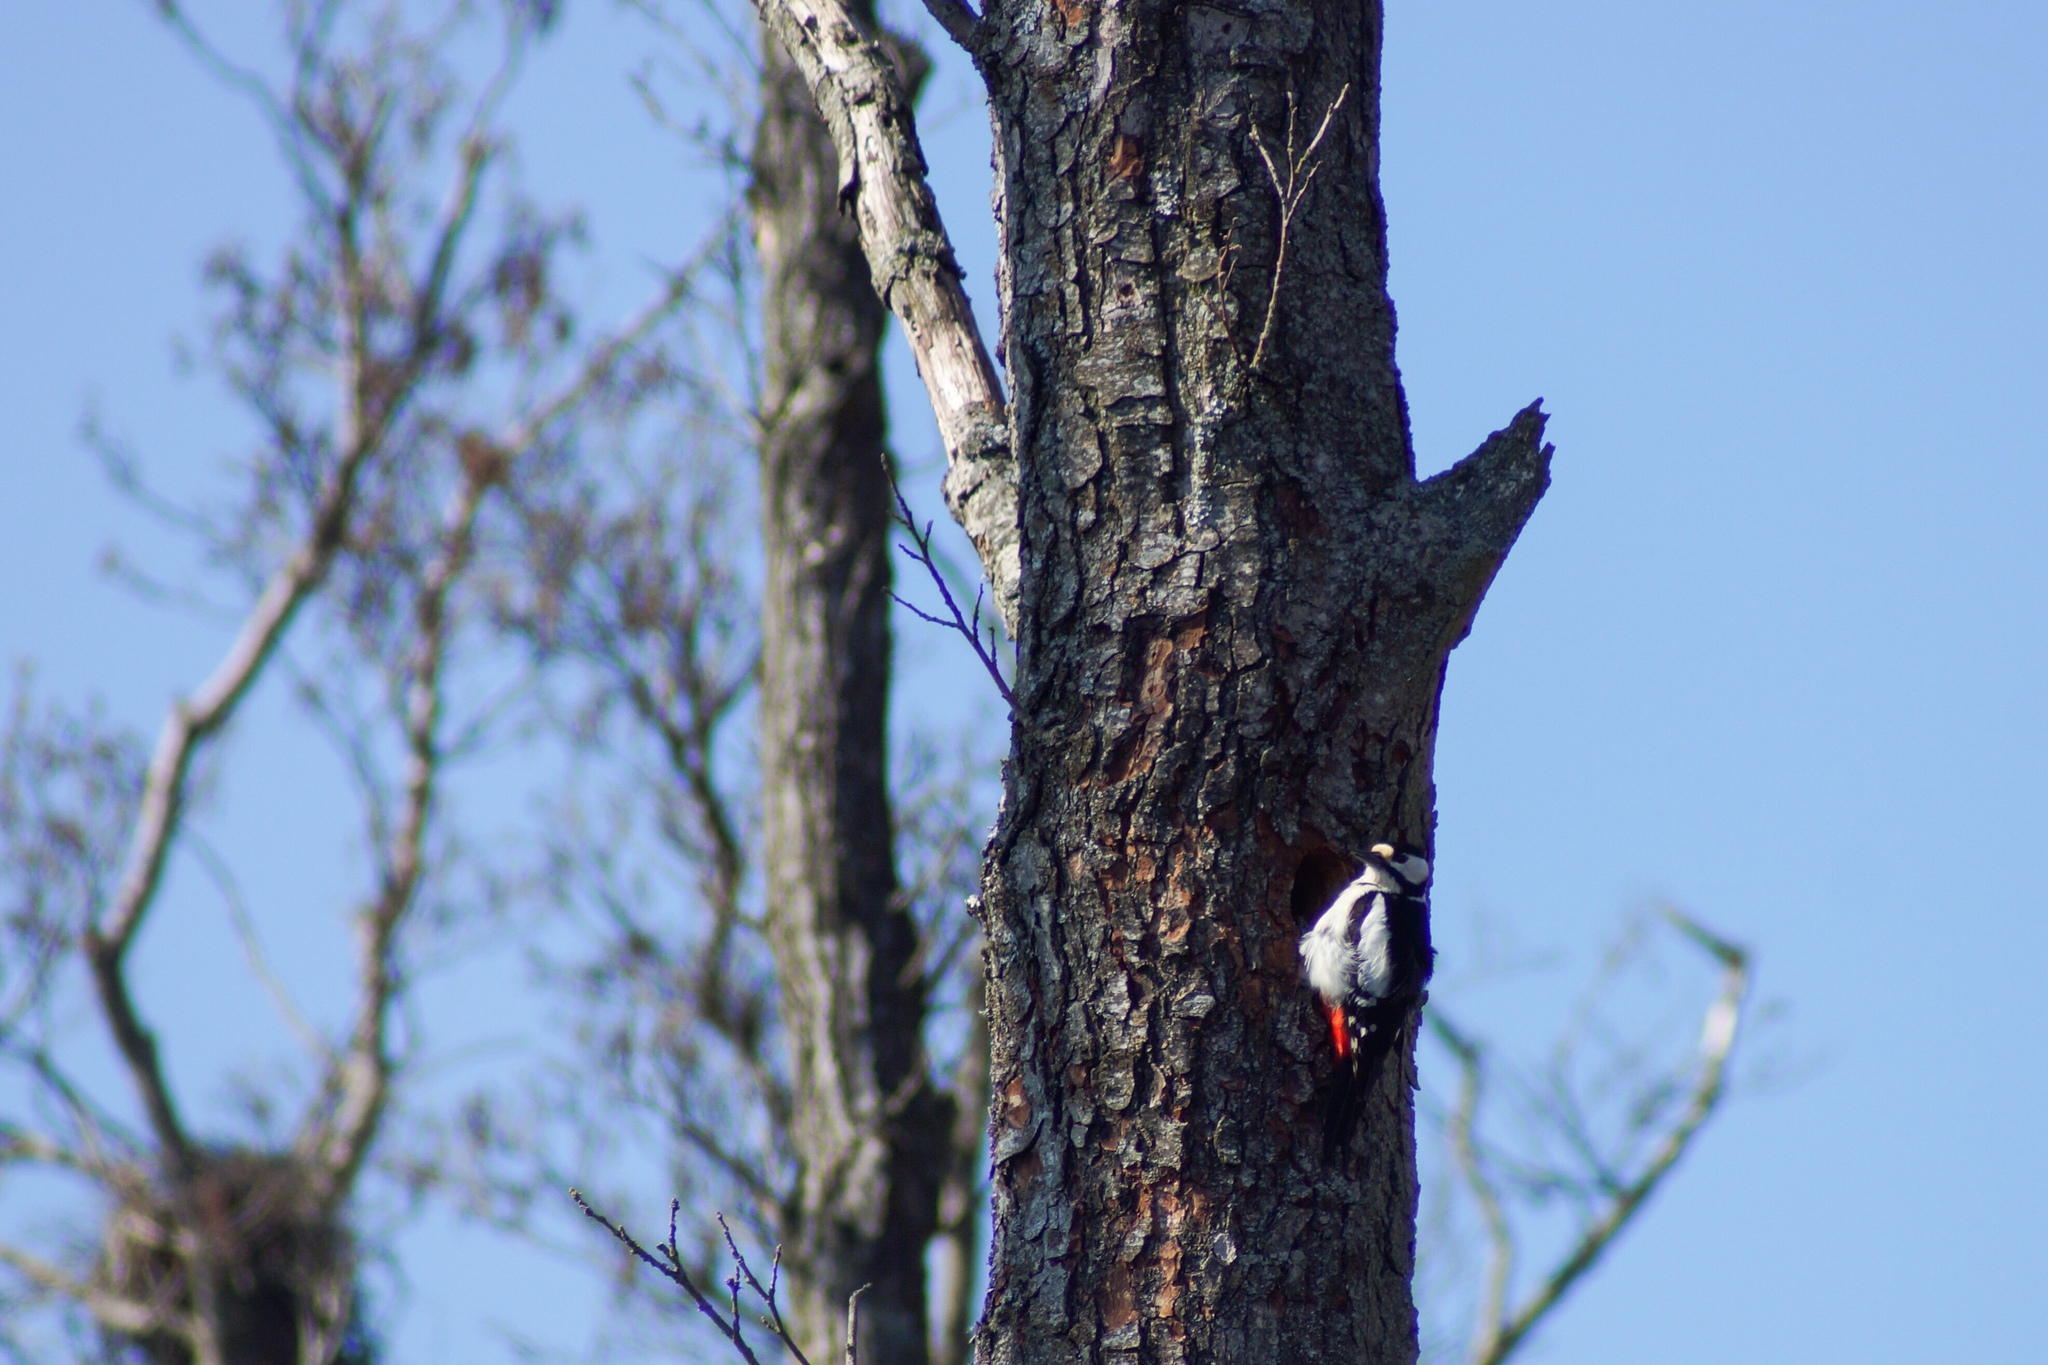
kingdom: Animalia
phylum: Chordata
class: Aves
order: Piciformes
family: Picidae
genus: Dendrocopos
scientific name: Dendrocopos major
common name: Great spotted woodpecker
